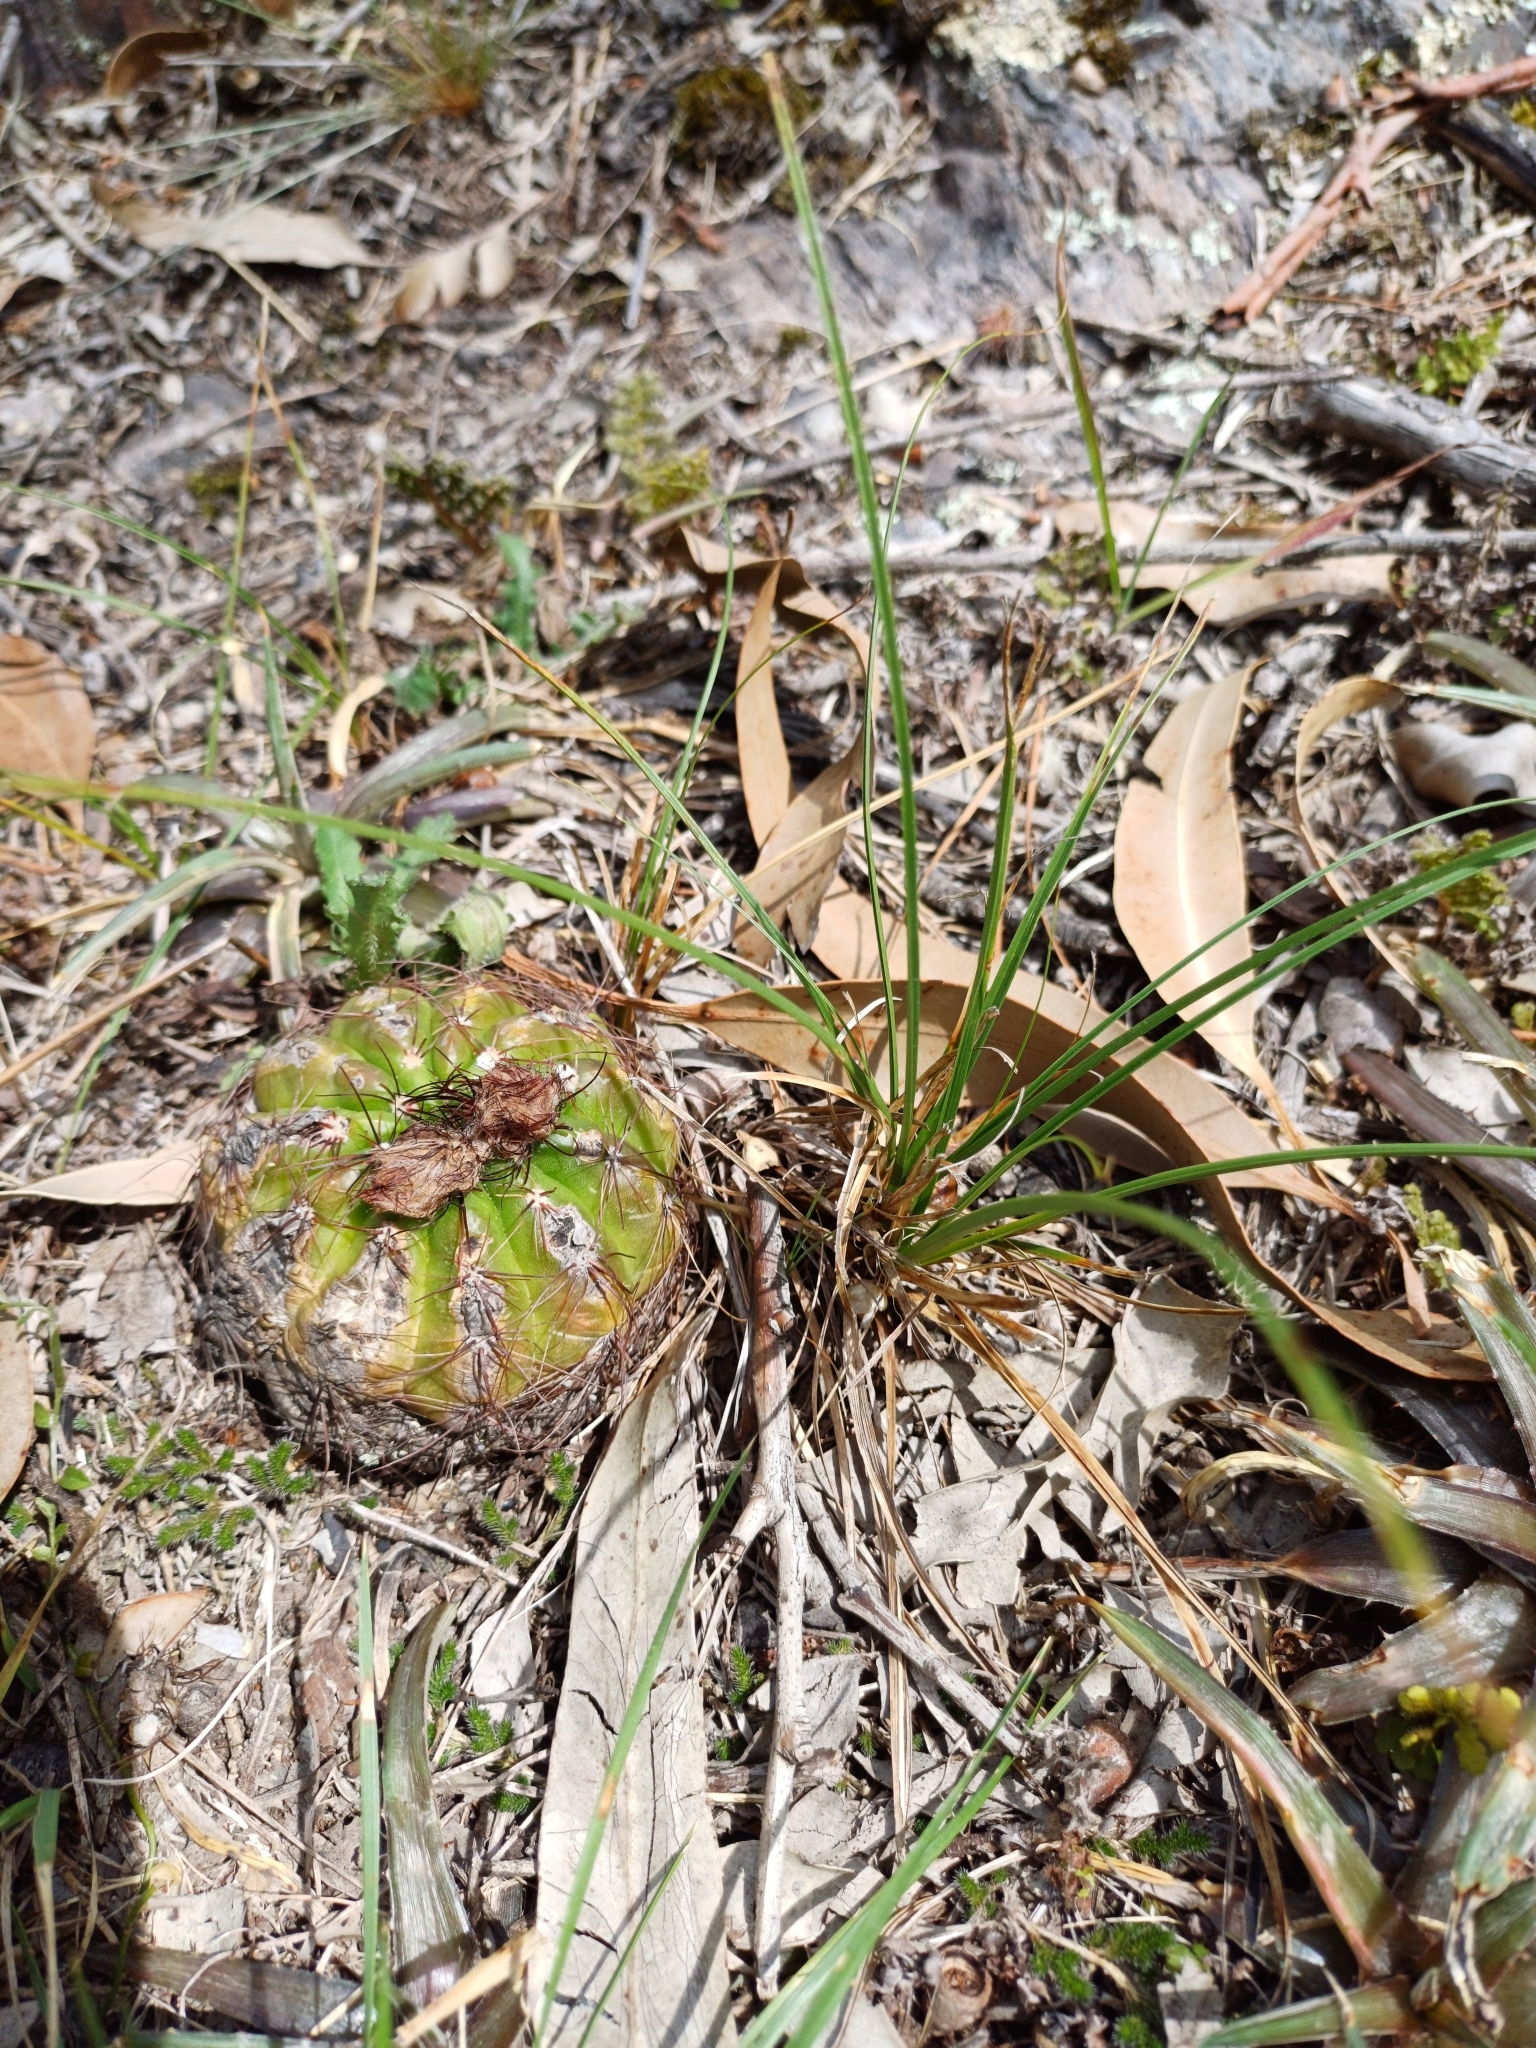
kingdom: Plantae
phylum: Tracheophyta
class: Magnoliopsida
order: Caryophyllales
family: Cactaceae
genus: Parodia
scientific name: Parodia ottonis
